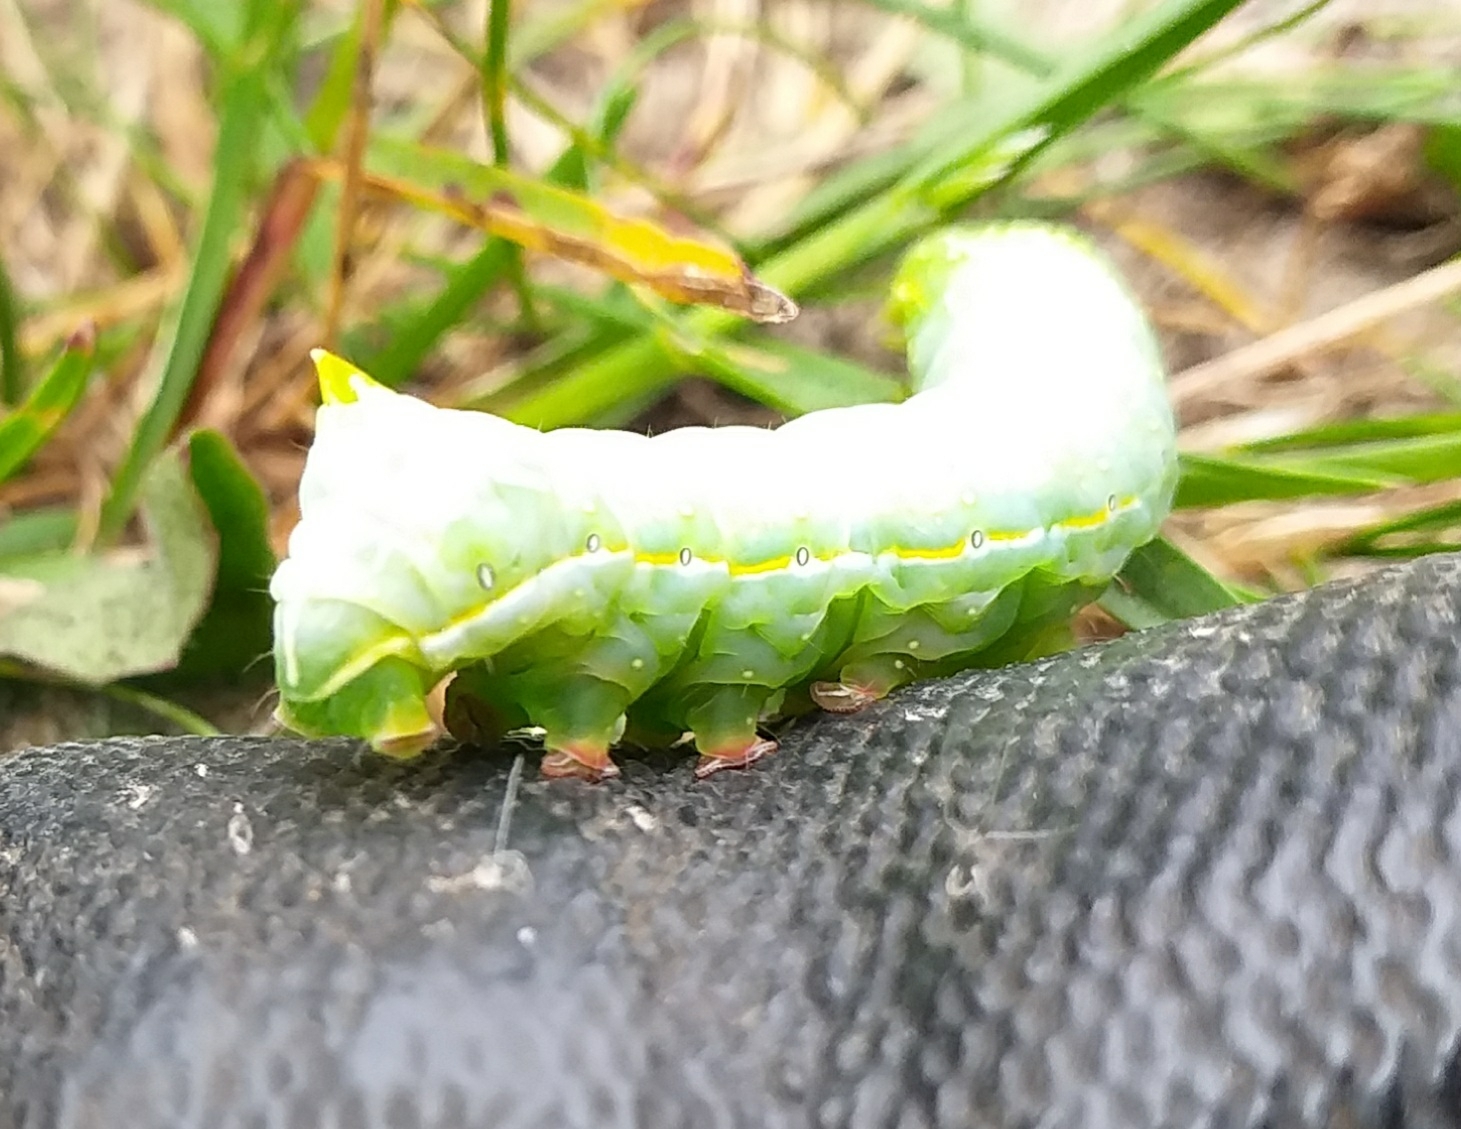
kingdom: Animalia
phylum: Arthropoda
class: Insecta
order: Lepidoptera
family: Noctuidae
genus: Amphipyra
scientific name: Amphipyra pyramidea
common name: Copper underwing
